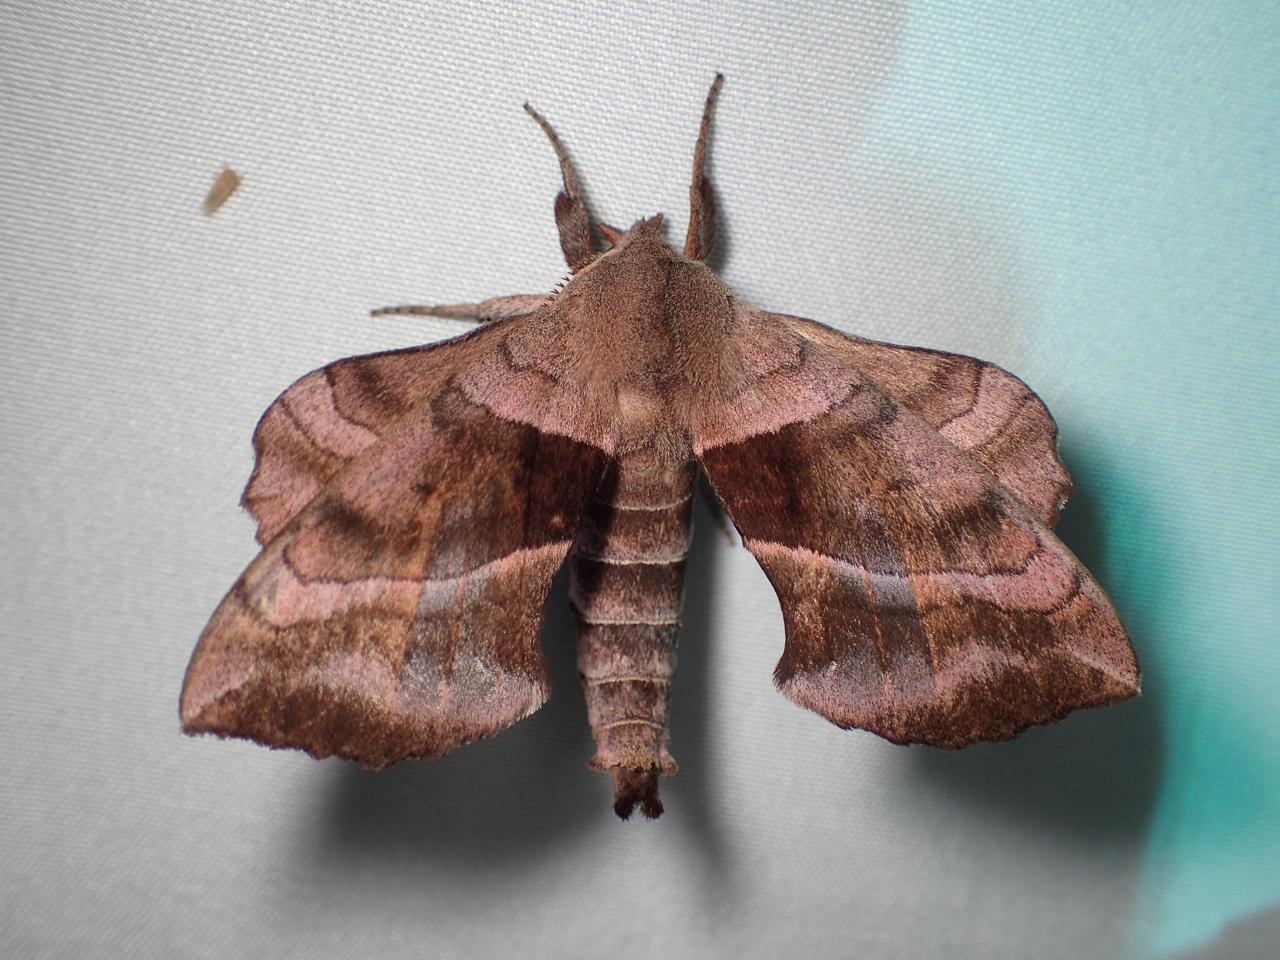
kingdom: Animalia
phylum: Arthropoda
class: Insecta
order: Lepidoptera
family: Sphingidae
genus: Amorpha
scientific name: Amorpha juglandis
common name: Walnut sphinx
